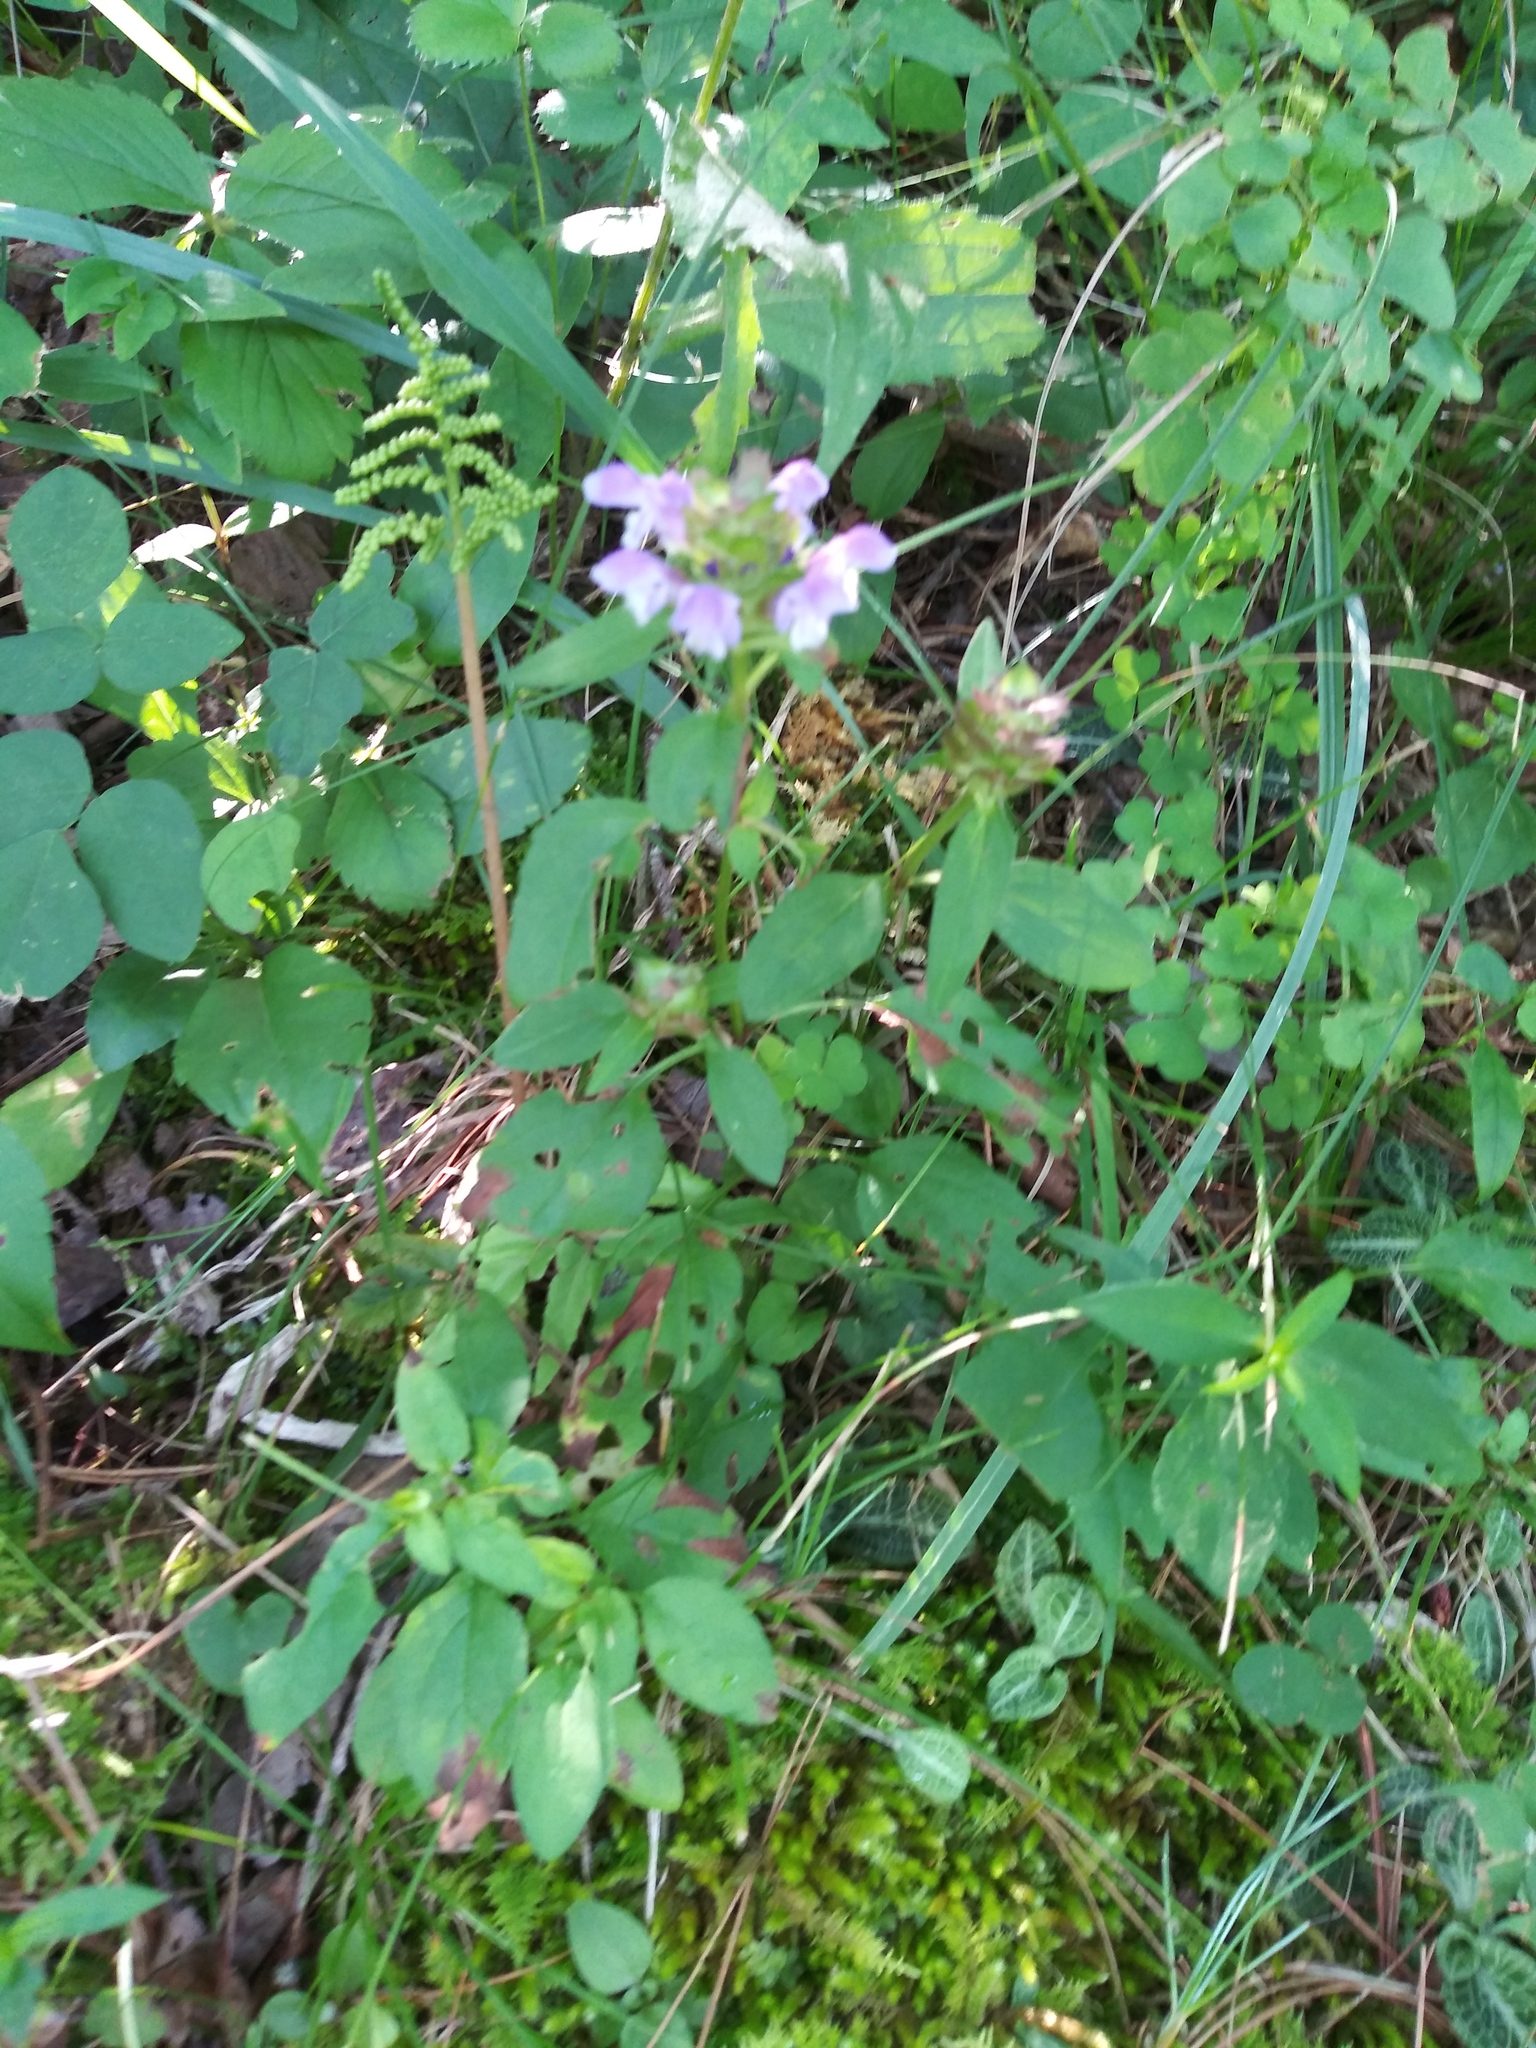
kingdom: Plantae
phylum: Tracheophyta
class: Magnoliopsida
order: Lamiales
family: Lamiaceae
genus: Prunella
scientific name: Prunella vulgaris
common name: Heal-all
